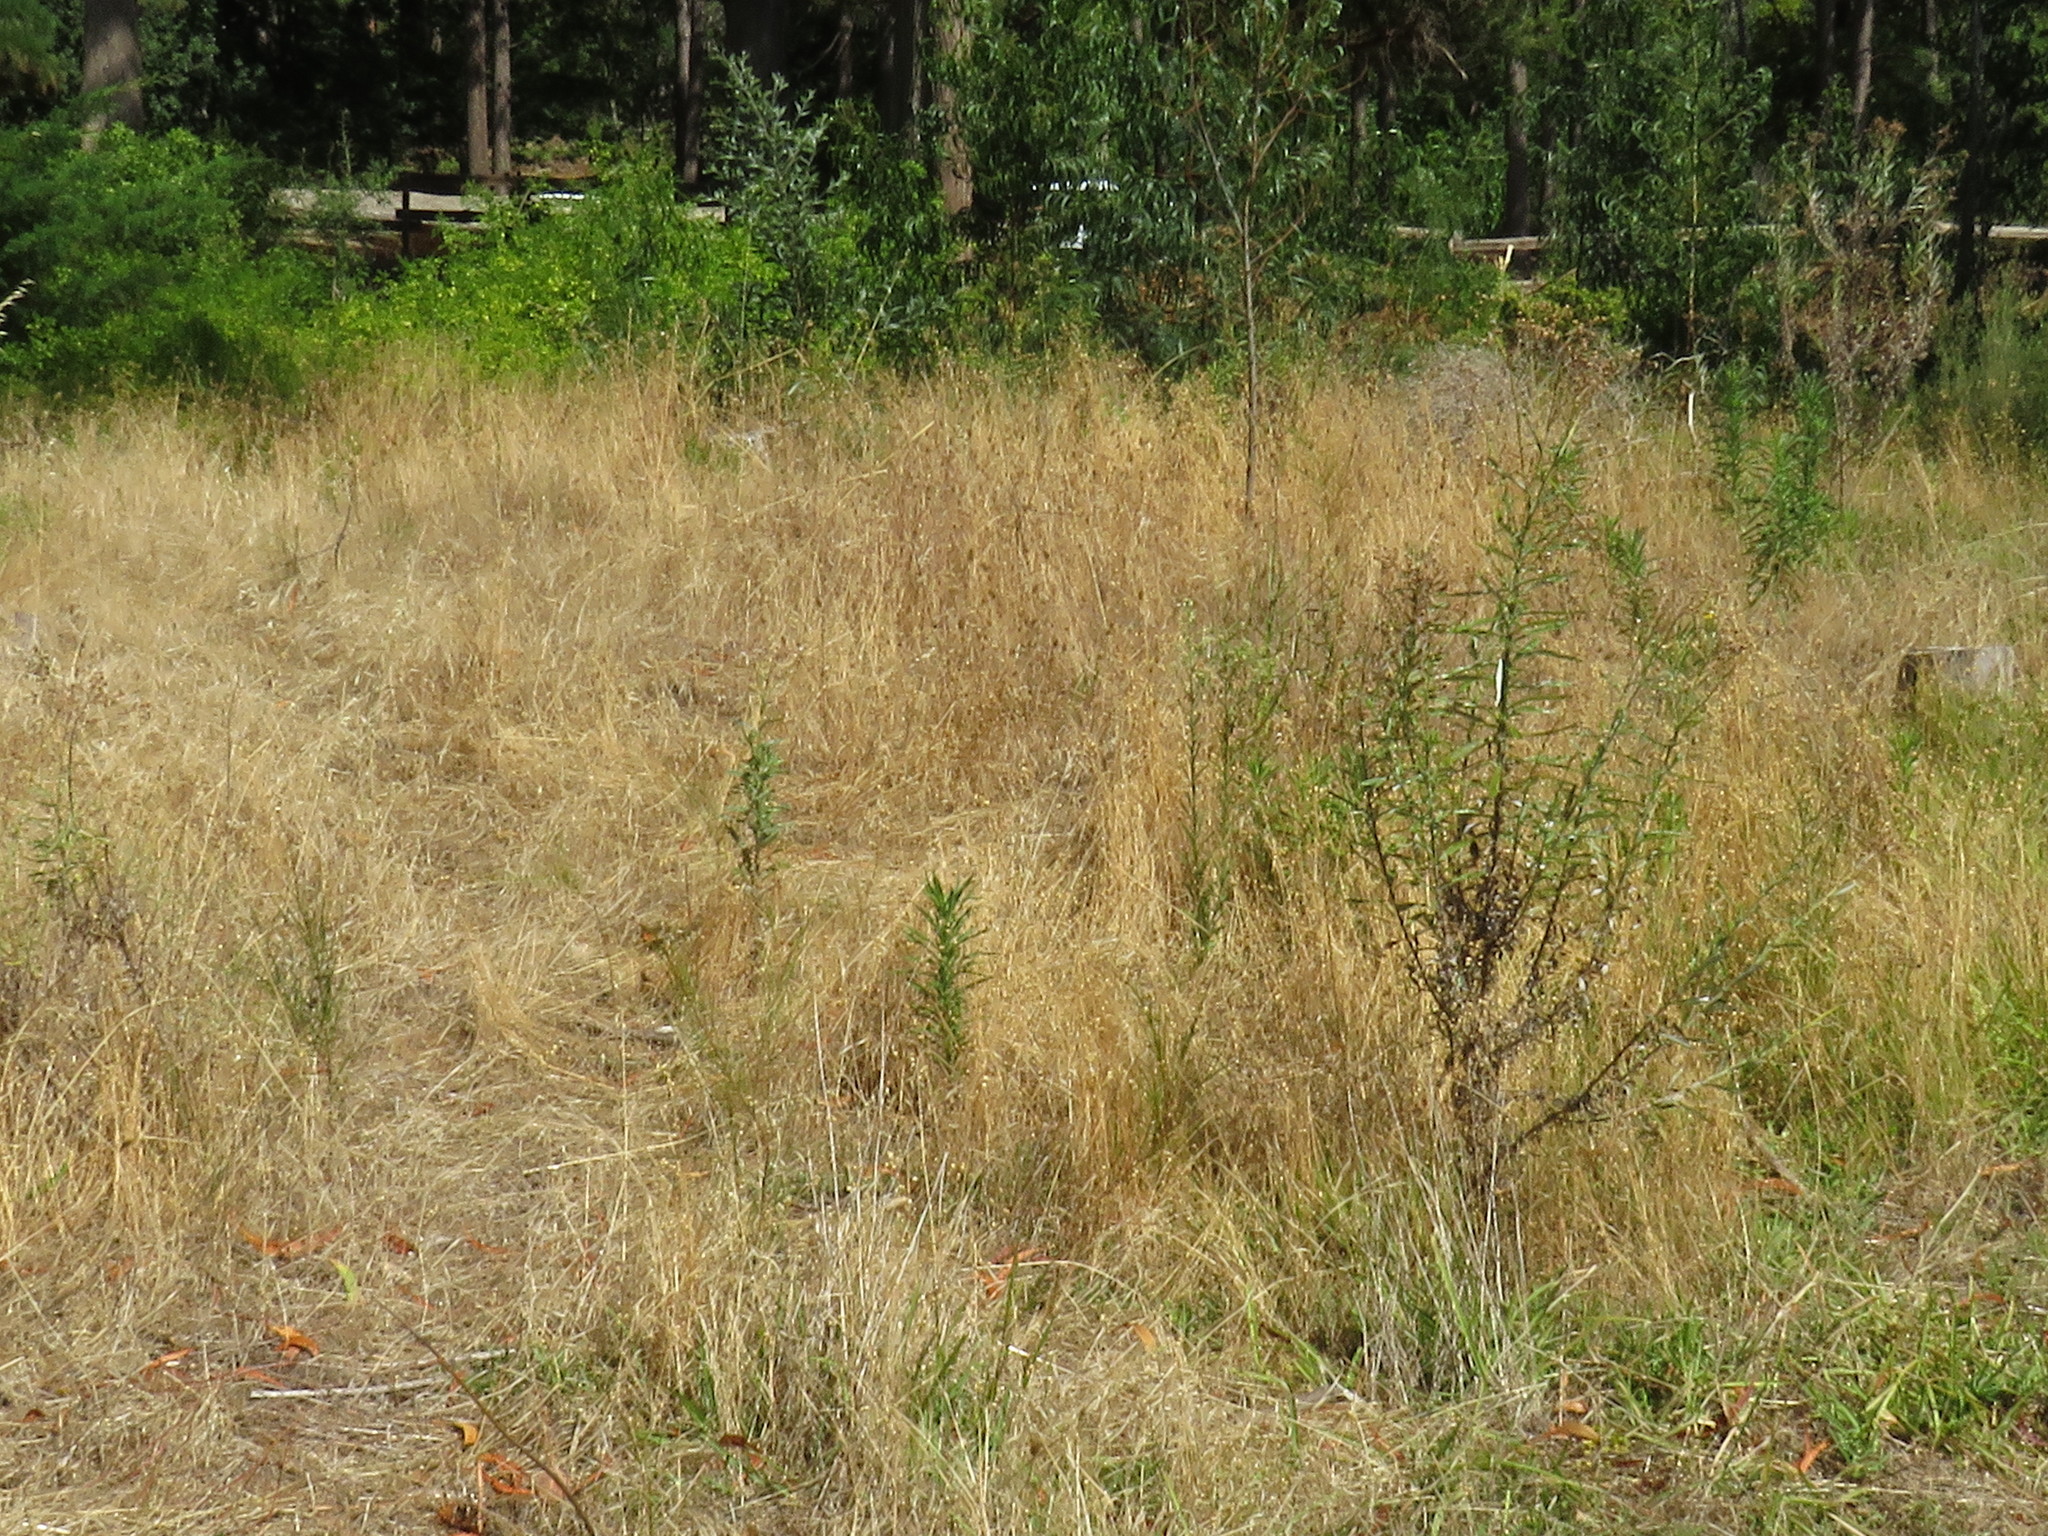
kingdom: Plantae
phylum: Tracheophyta
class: Magnoliopsida
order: Fagales
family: Casuarinaceae
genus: Casuarina
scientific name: Casuarina cunninghamiana
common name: River sheoak
